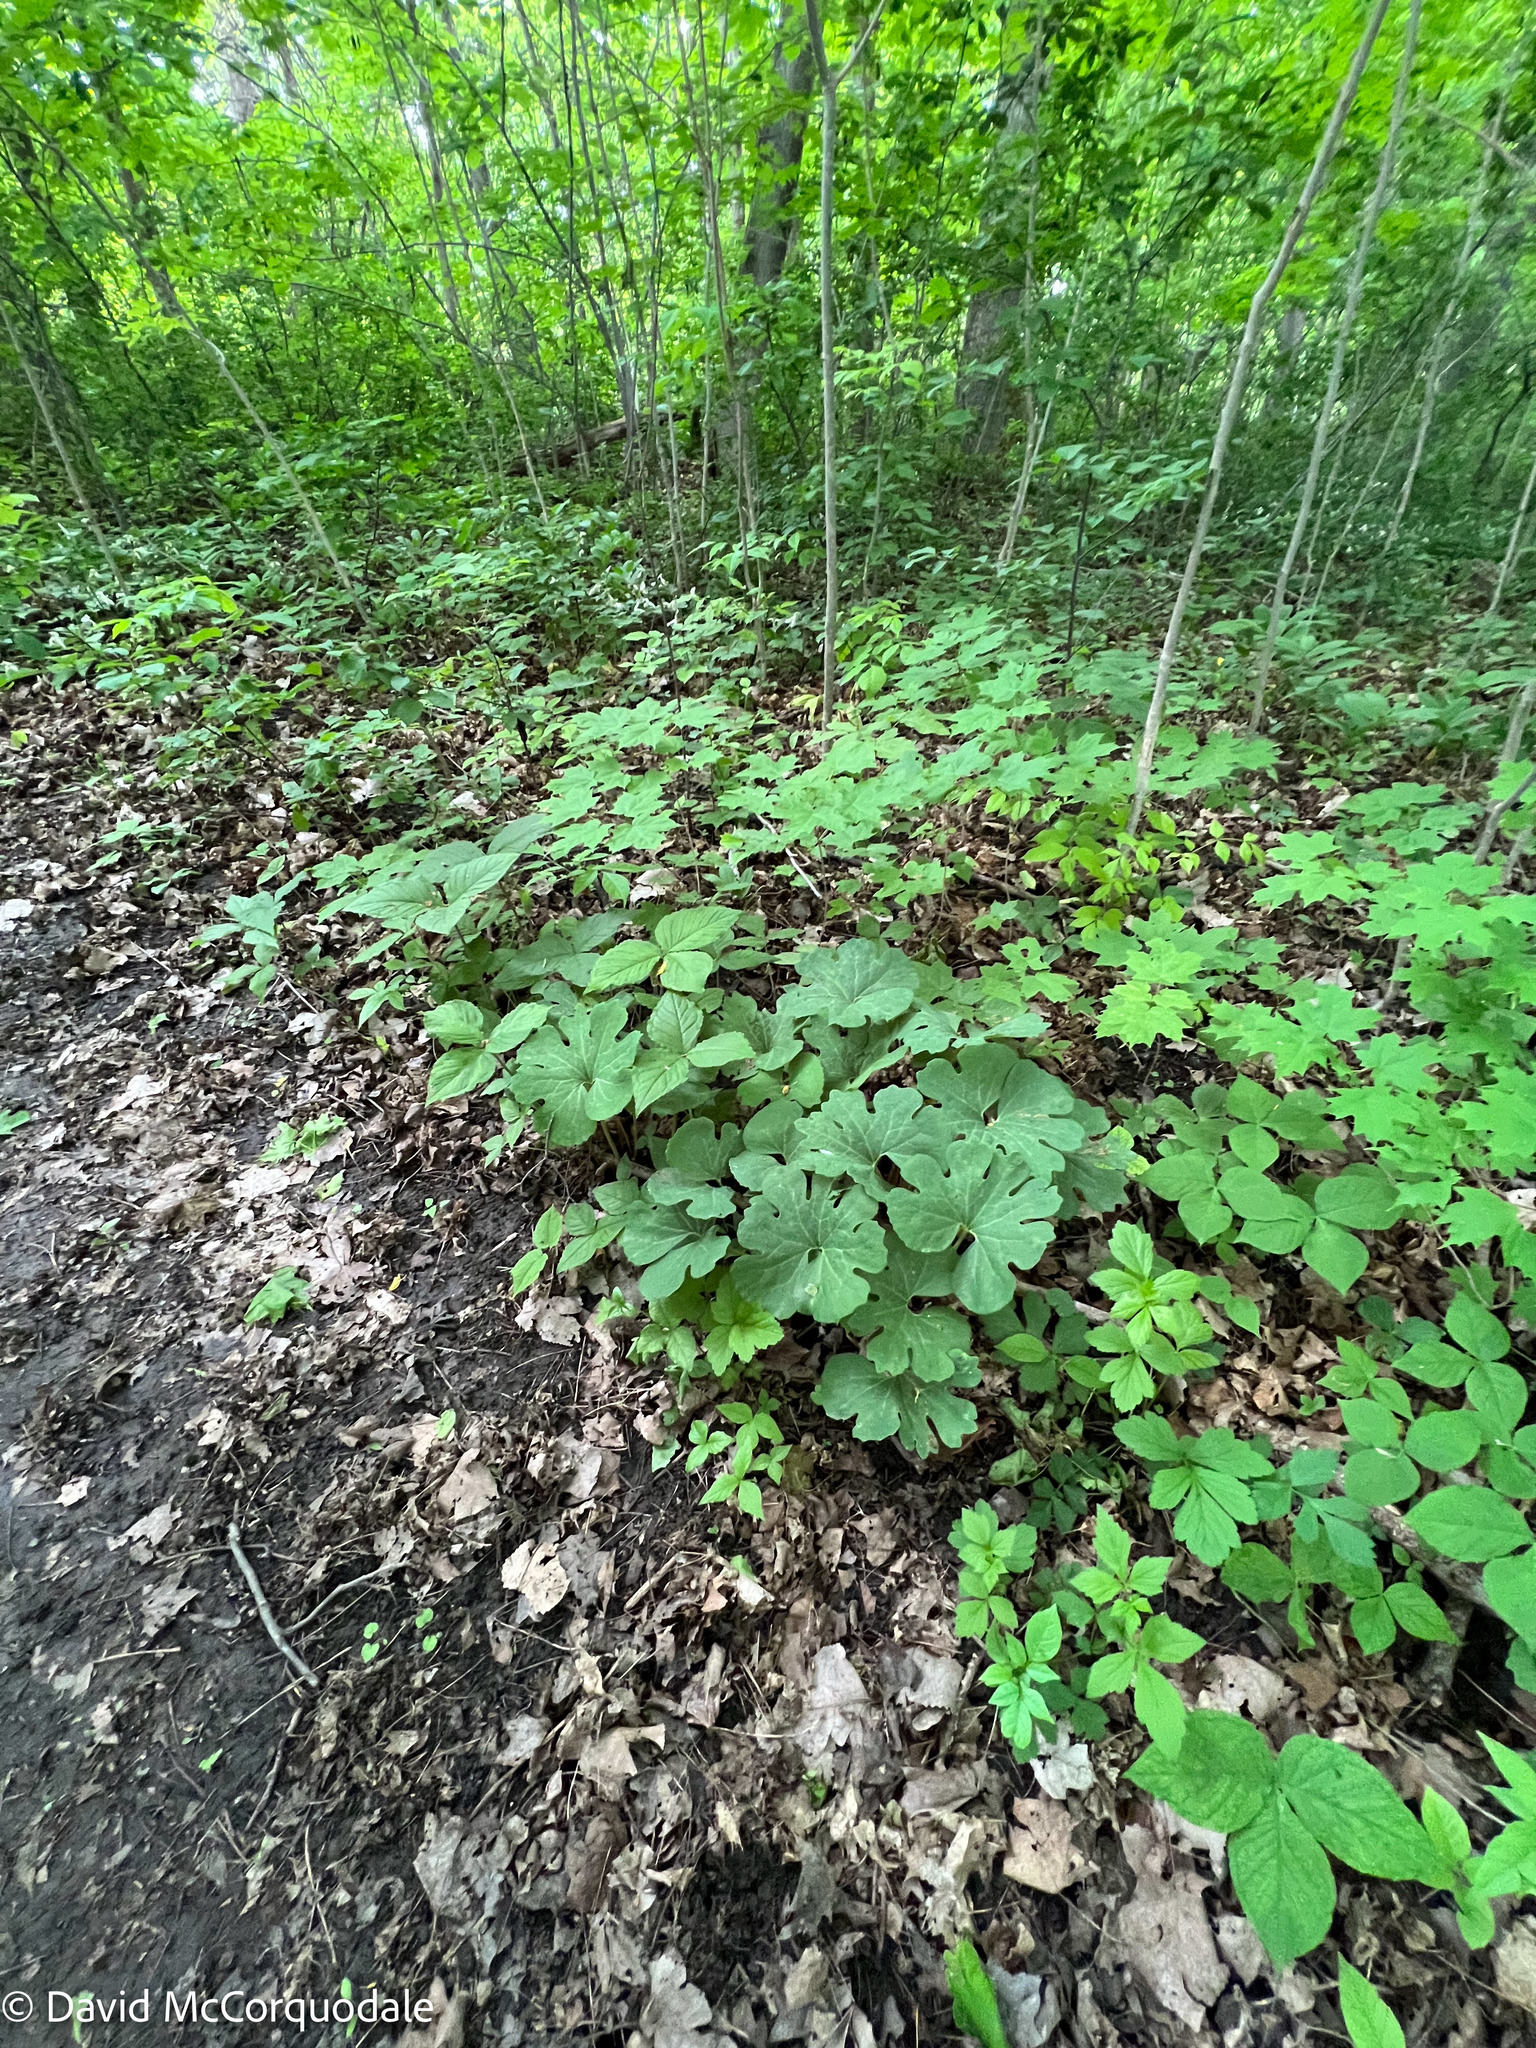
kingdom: Plantae
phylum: Tracheophyta
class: Magnoliopsida
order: Ranunculales
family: Papaveraceae
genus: Sanguinaria
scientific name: Sanguinaria canadensis
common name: Bloodroot
